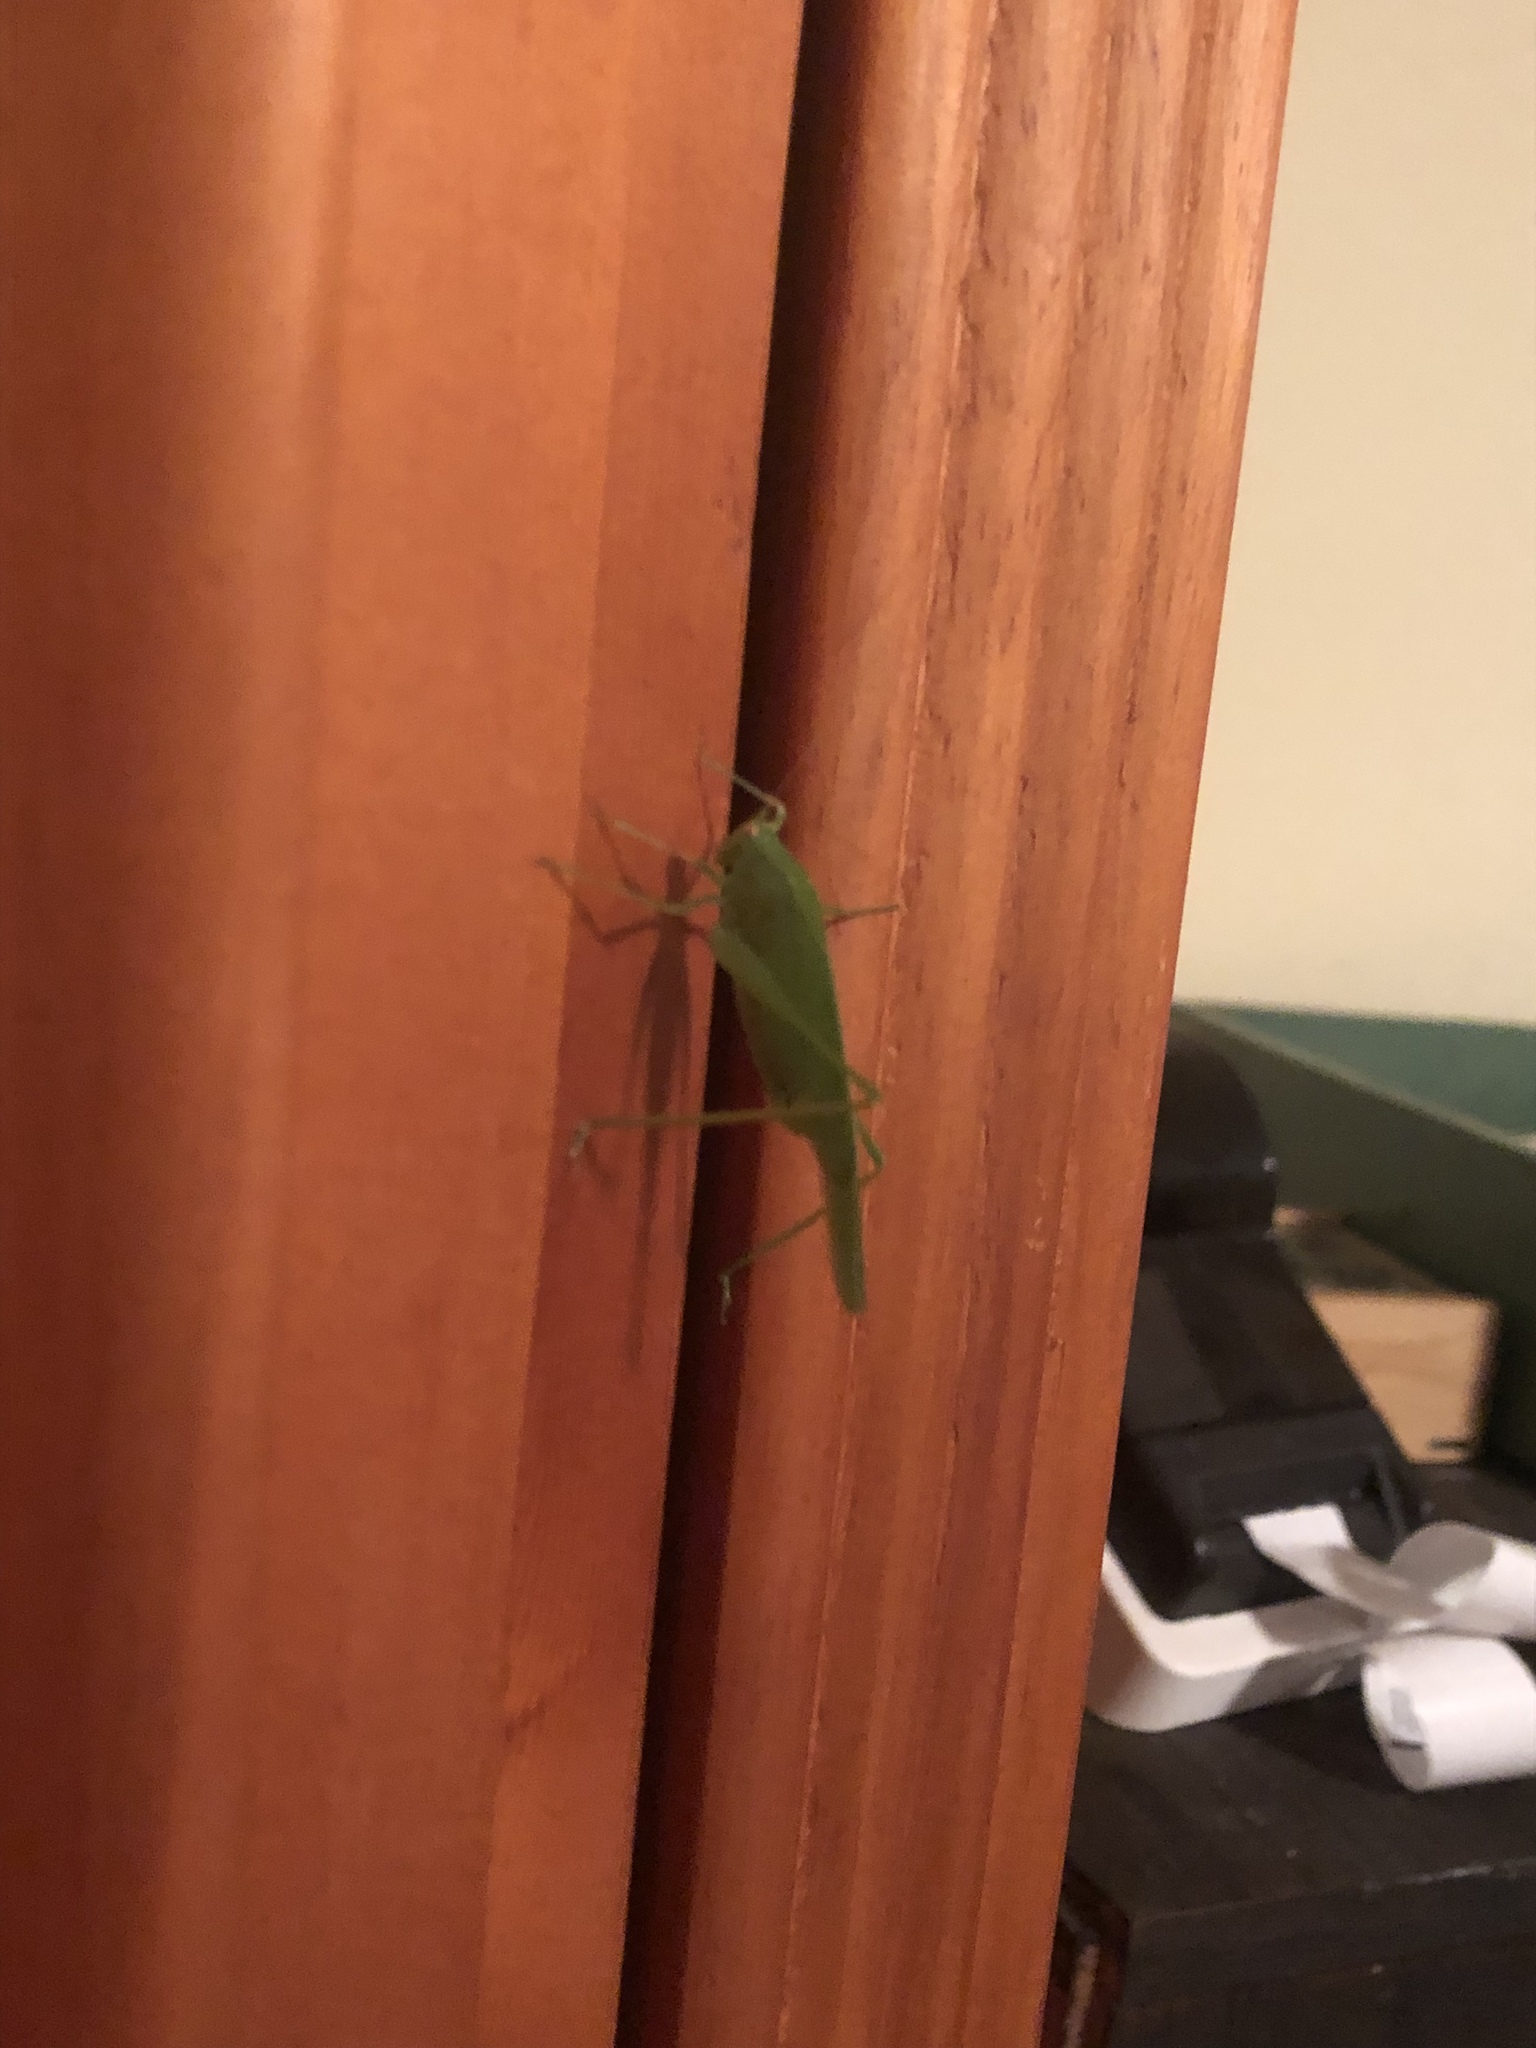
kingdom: Animalia
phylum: Arthropoda
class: Insecta
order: Orthoptera
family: Tettigoniidae
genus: Phaneroptera
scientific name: Phaneroptera nana
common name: Southern sickle bush-cricket
